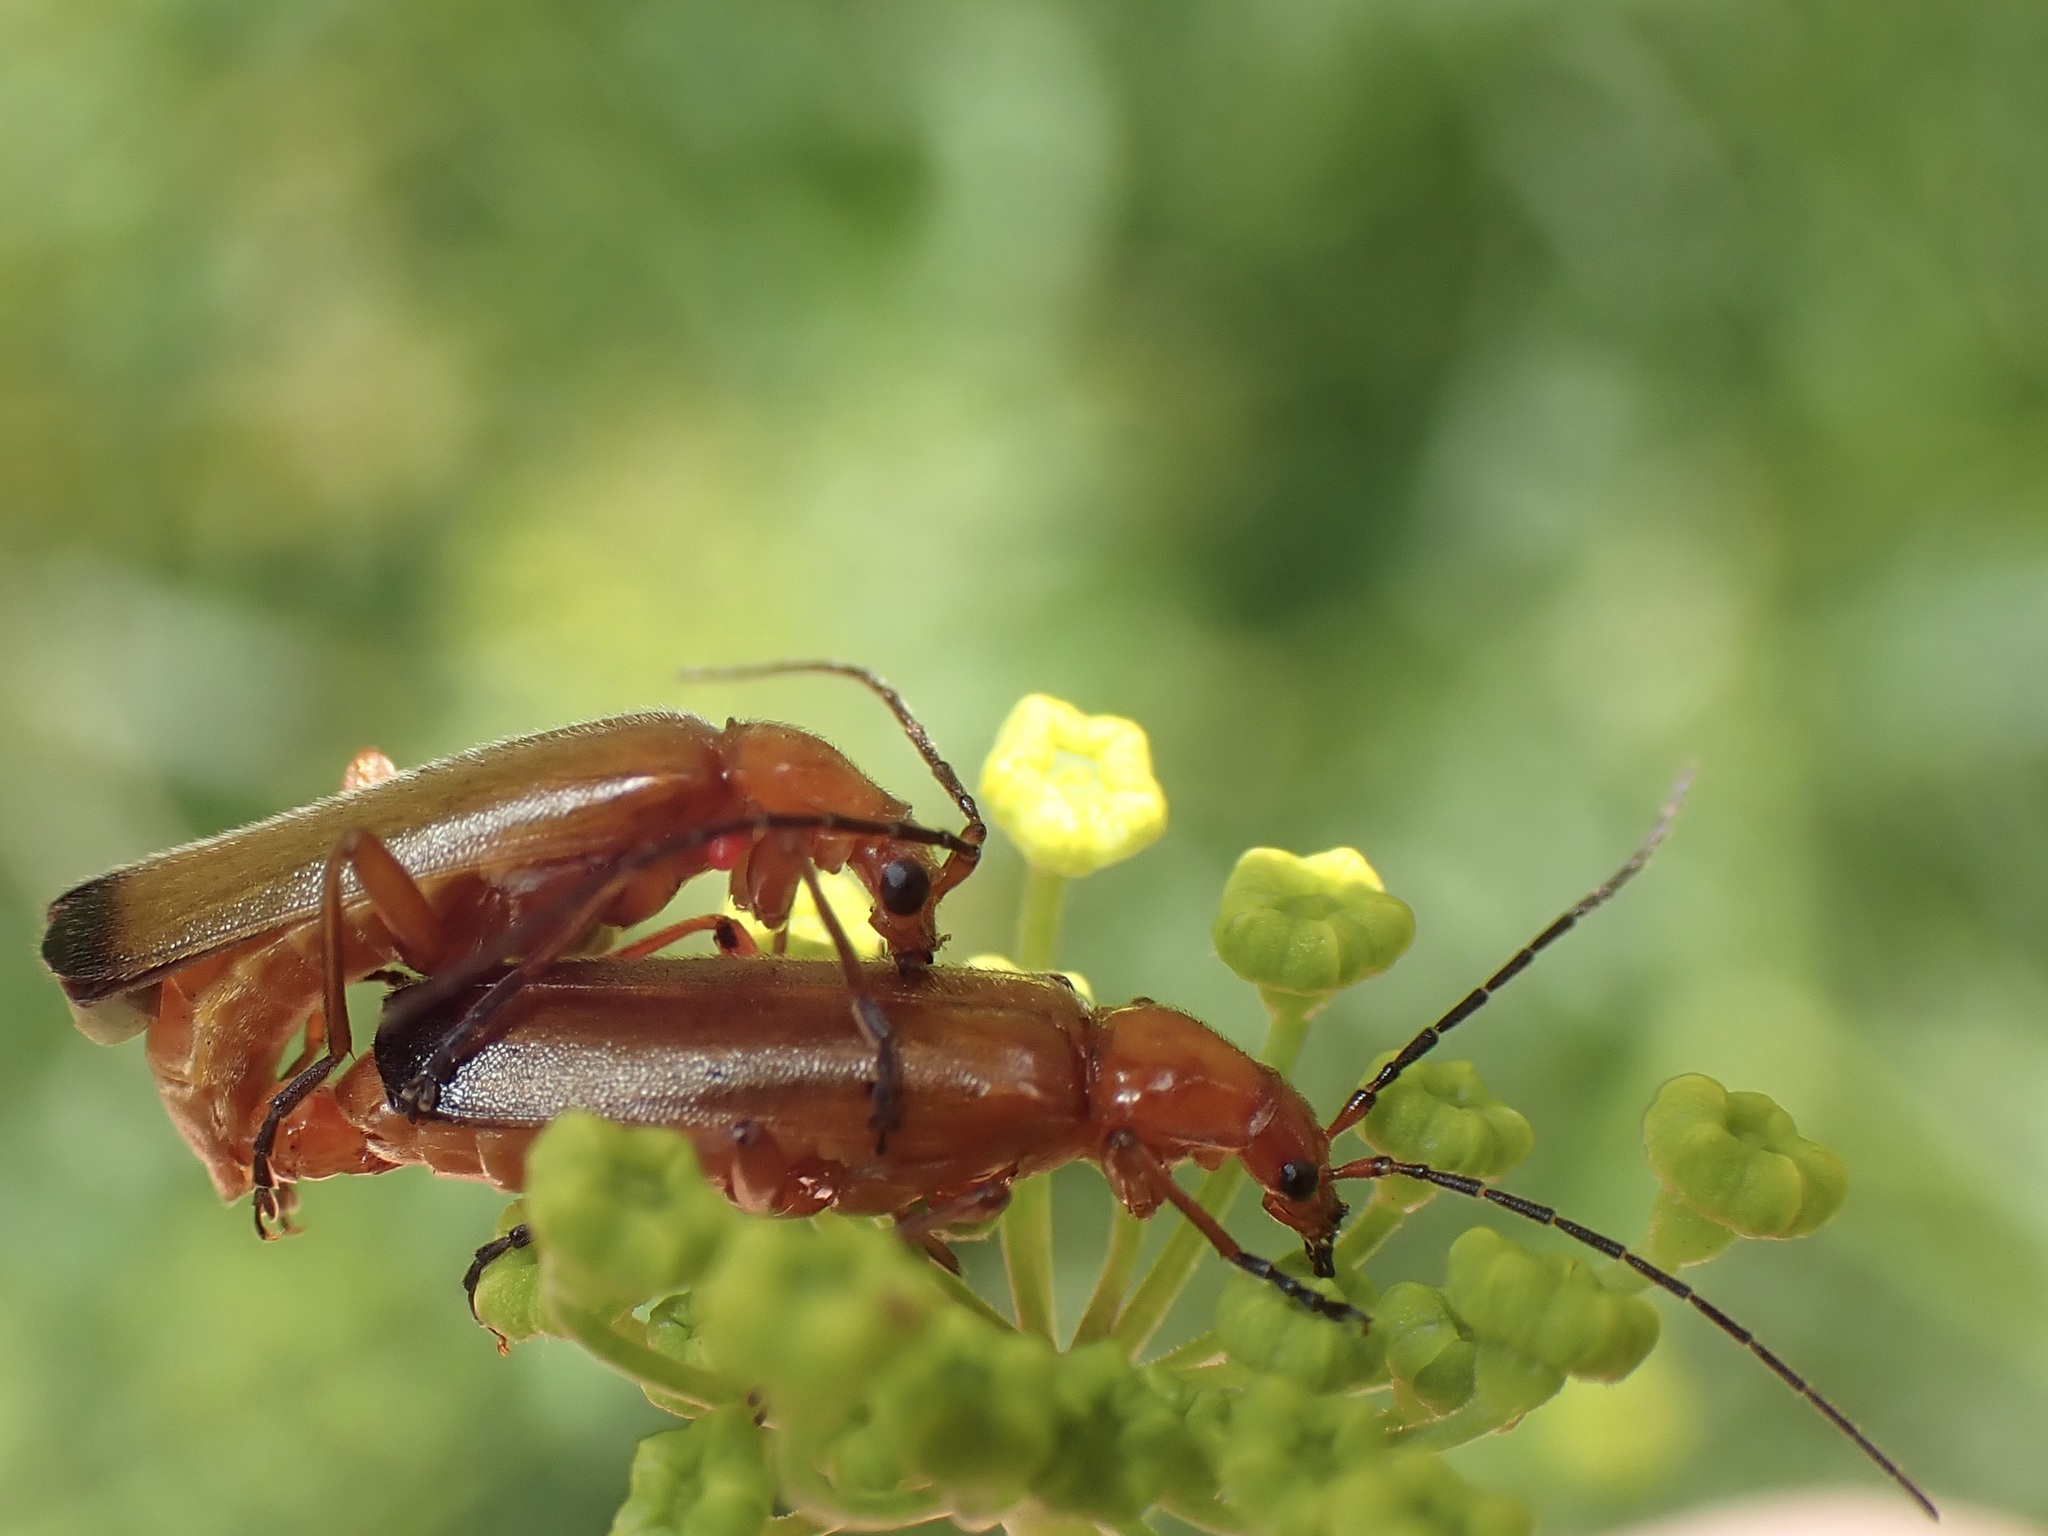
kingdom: Animalia
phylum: Arthropoda
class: Insecta
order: Coleoptera
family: Cantharidae
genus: Rhagonycha
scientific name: Rhagonycha fulva
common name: Common red soldier beetle
